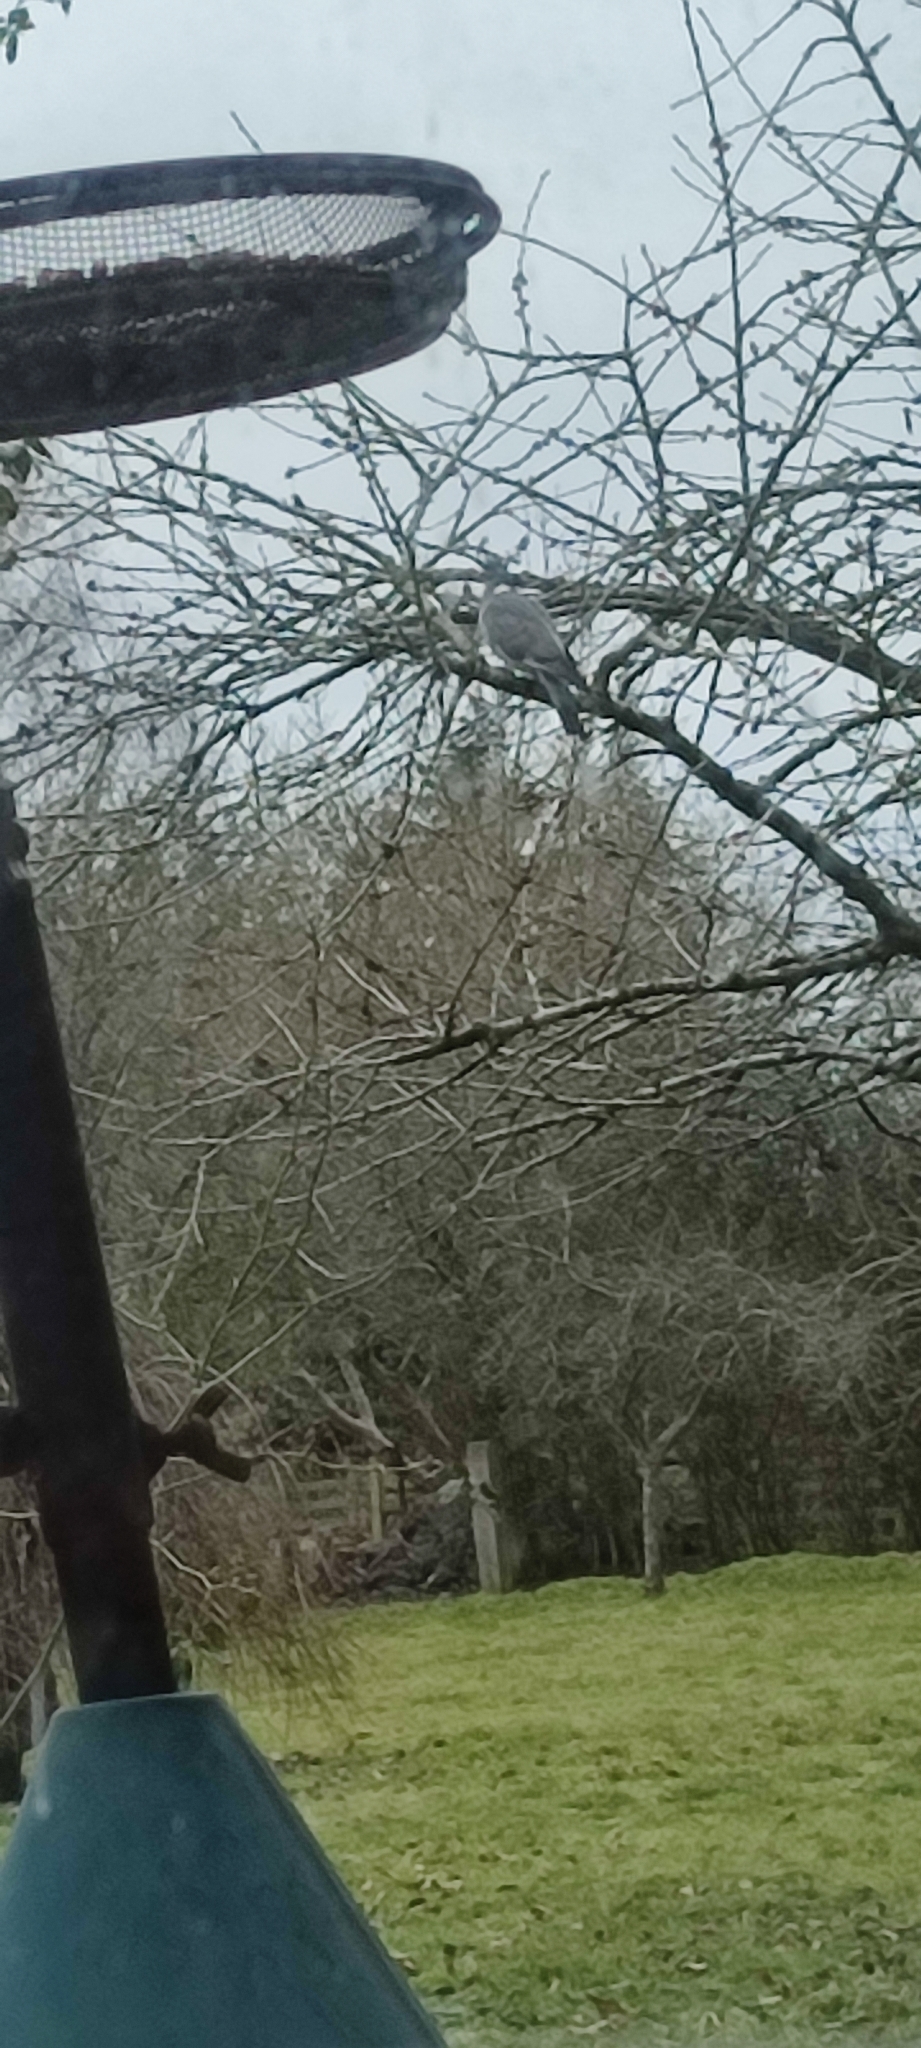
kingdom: Animalia
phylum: Chordata
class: Aves
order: Columbiformes
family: Columbidae
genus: Columba
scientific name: Columba palumbus
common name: Common wood pigeon
